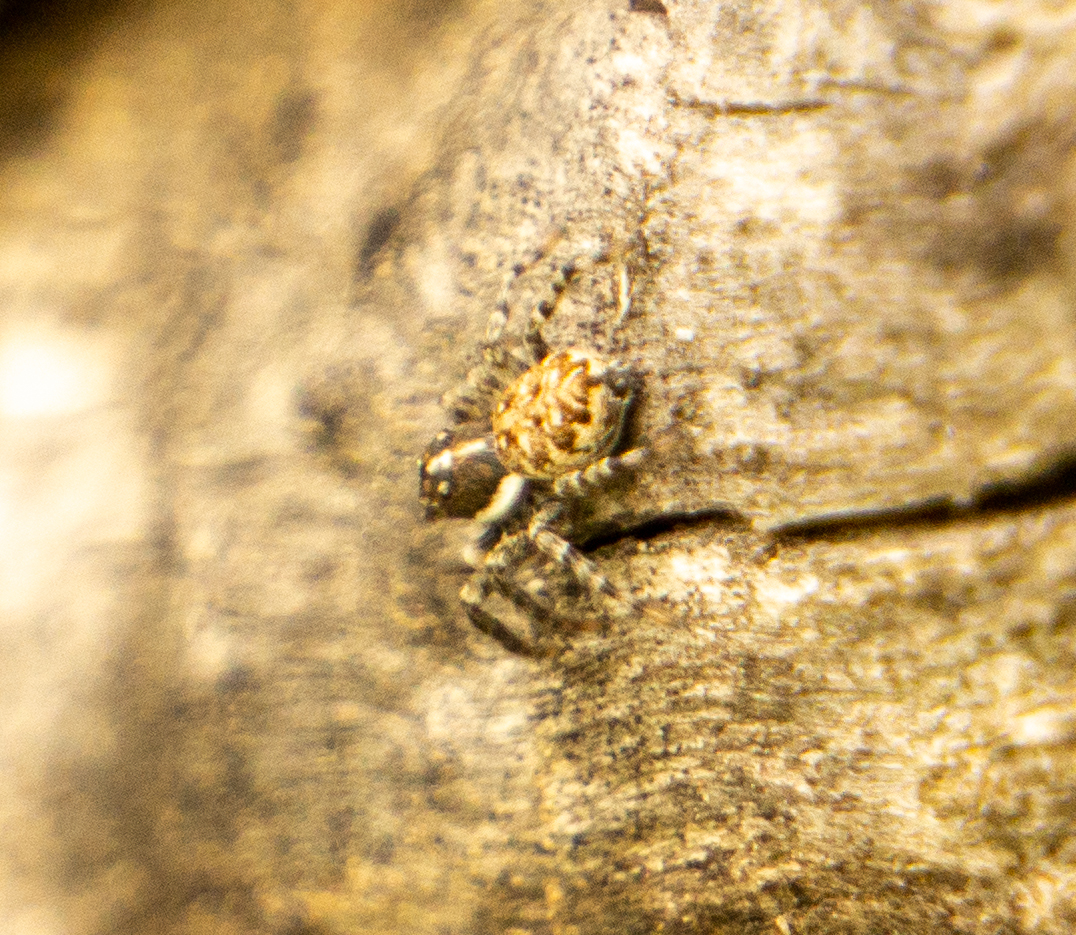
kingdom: Animalia
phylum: Arthropoda
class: Arachnida
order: Araneae
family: Salticidae
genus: Menemerus
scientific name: Menemerus semilimbatus
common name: Jumping spider
